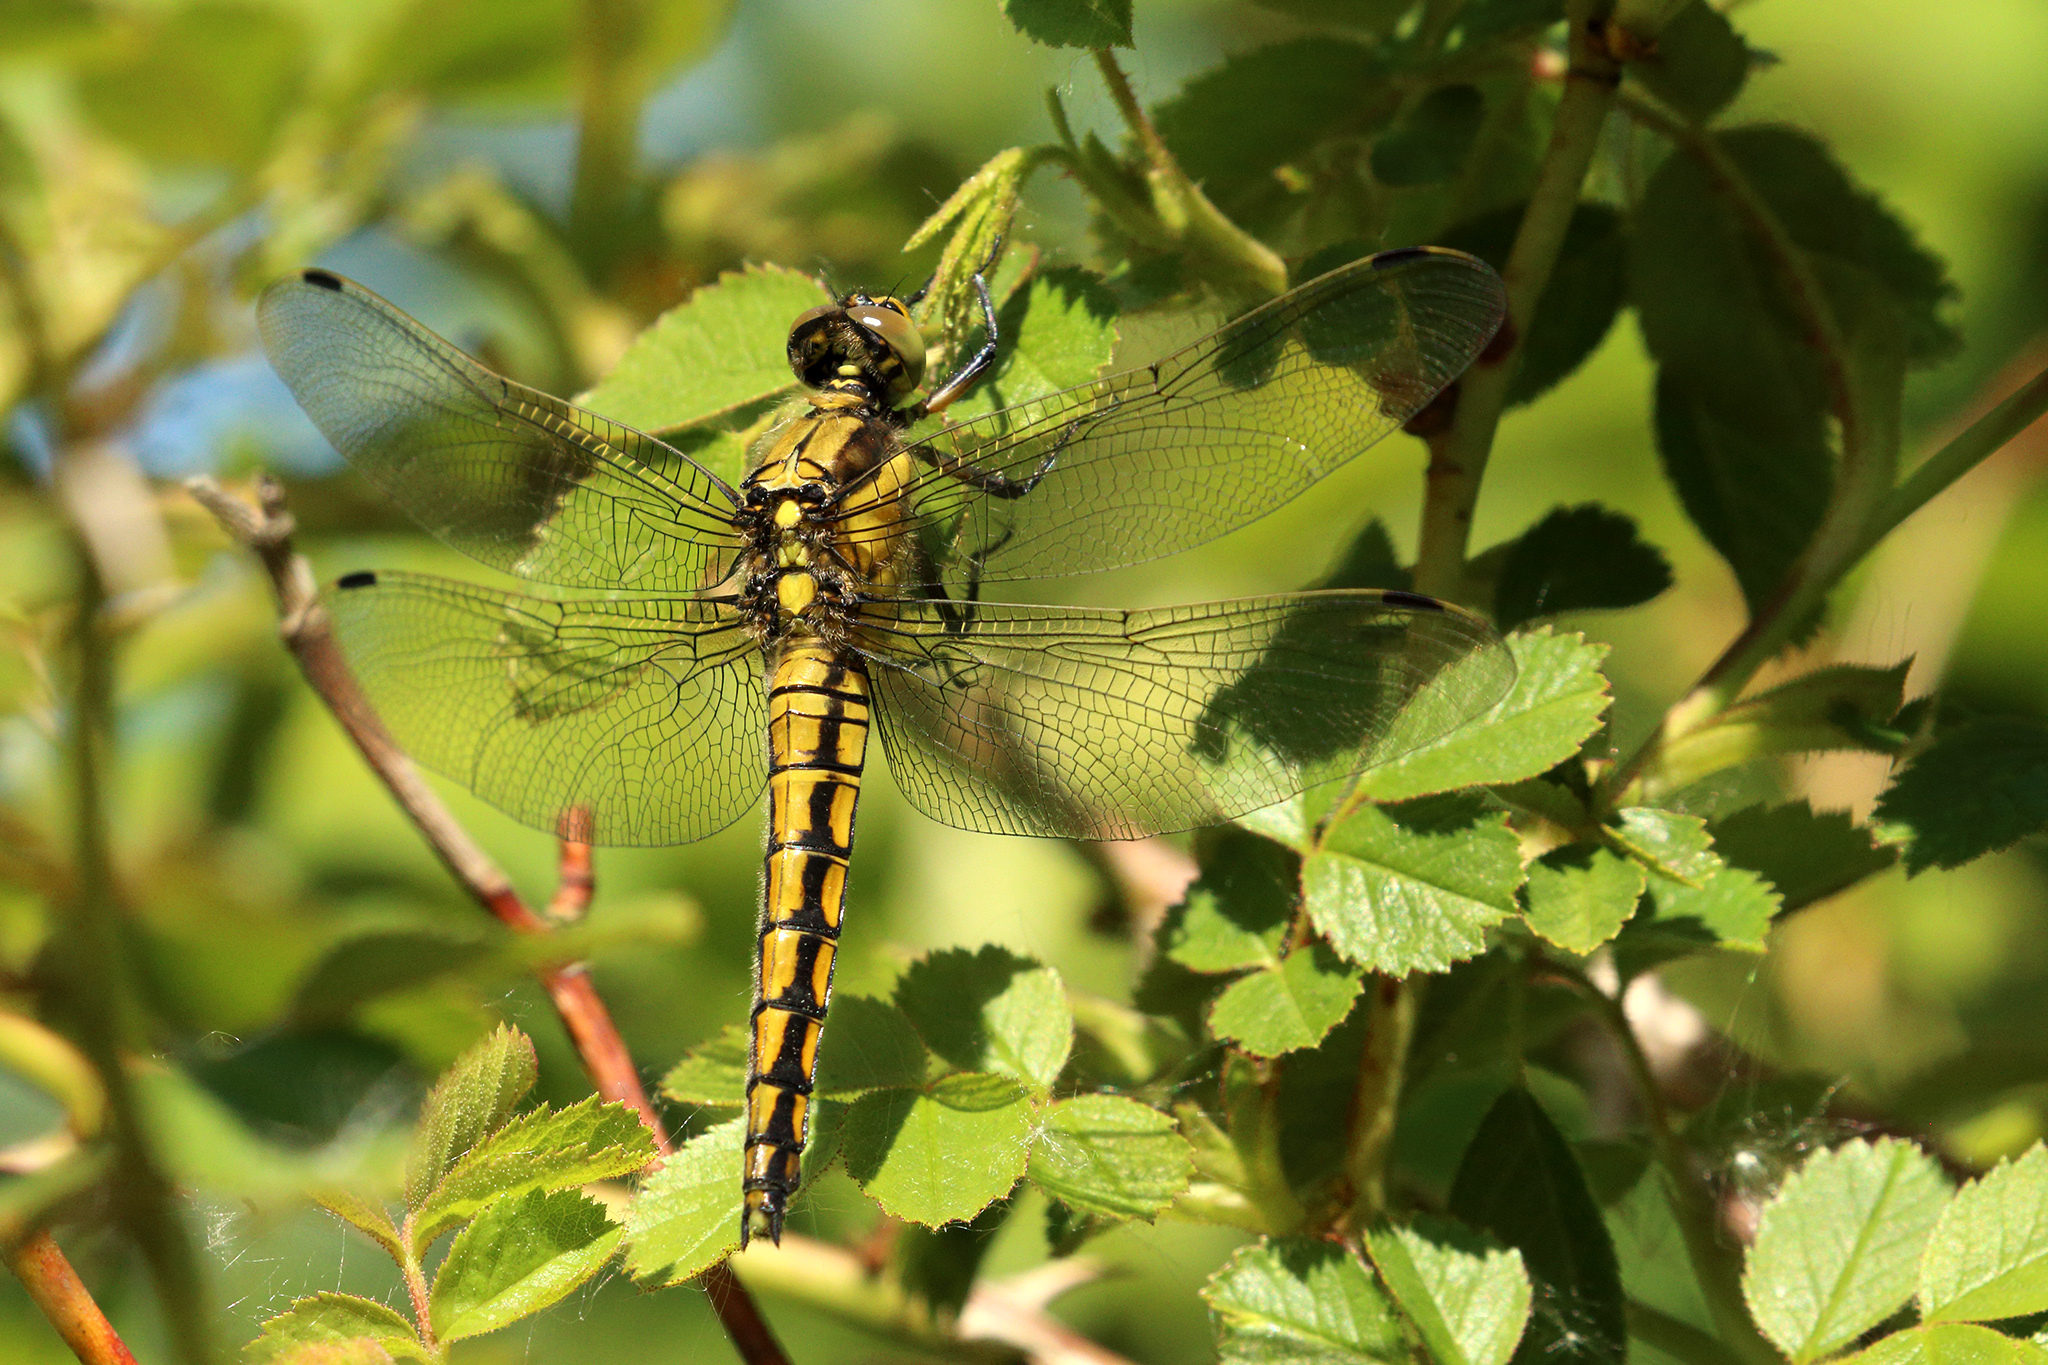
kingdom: Animalia
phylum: Arthropoda
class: Insecta
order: Odonata
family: Libellulidae
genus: Orthetrum
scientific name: Orthetrum cancellatum
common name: Black-tailed skimmer
